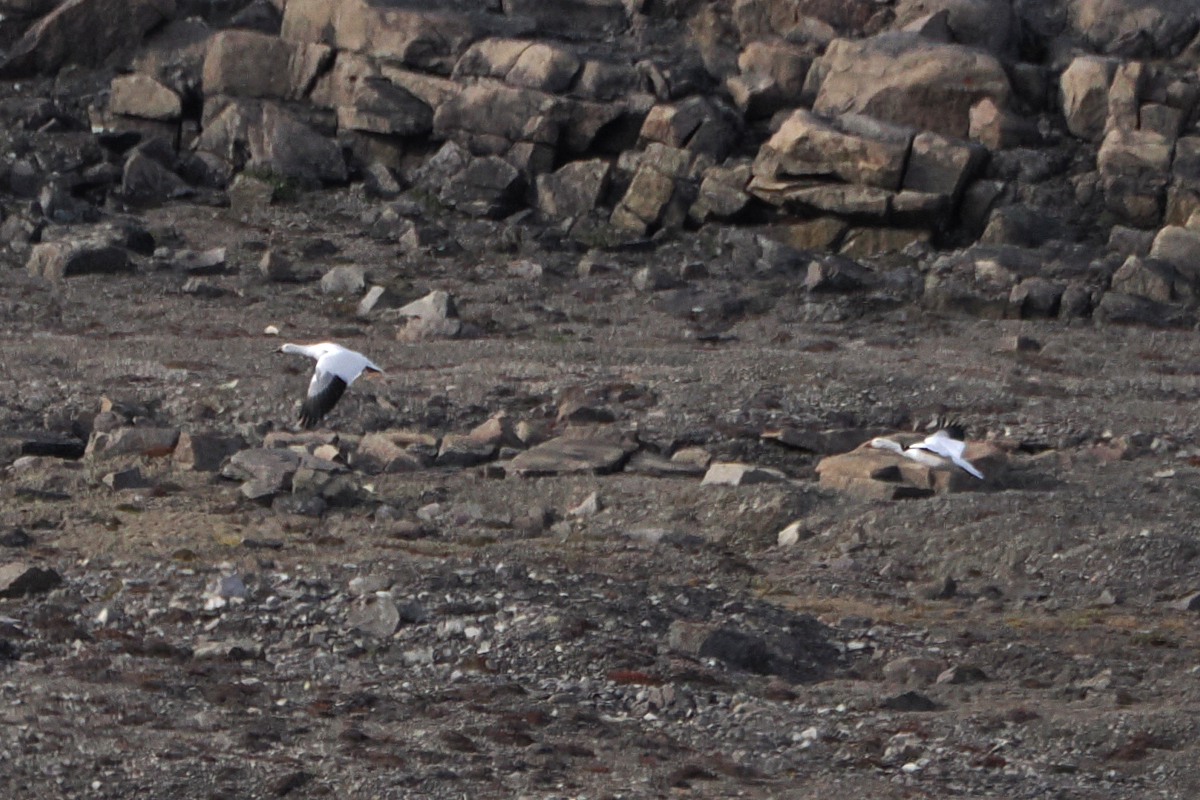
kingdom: Animalia
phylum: Chordata
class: Aves
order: Anseriformes
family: Anatidae
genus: Anser
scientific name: Anser caerulescens
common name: Snow goose
